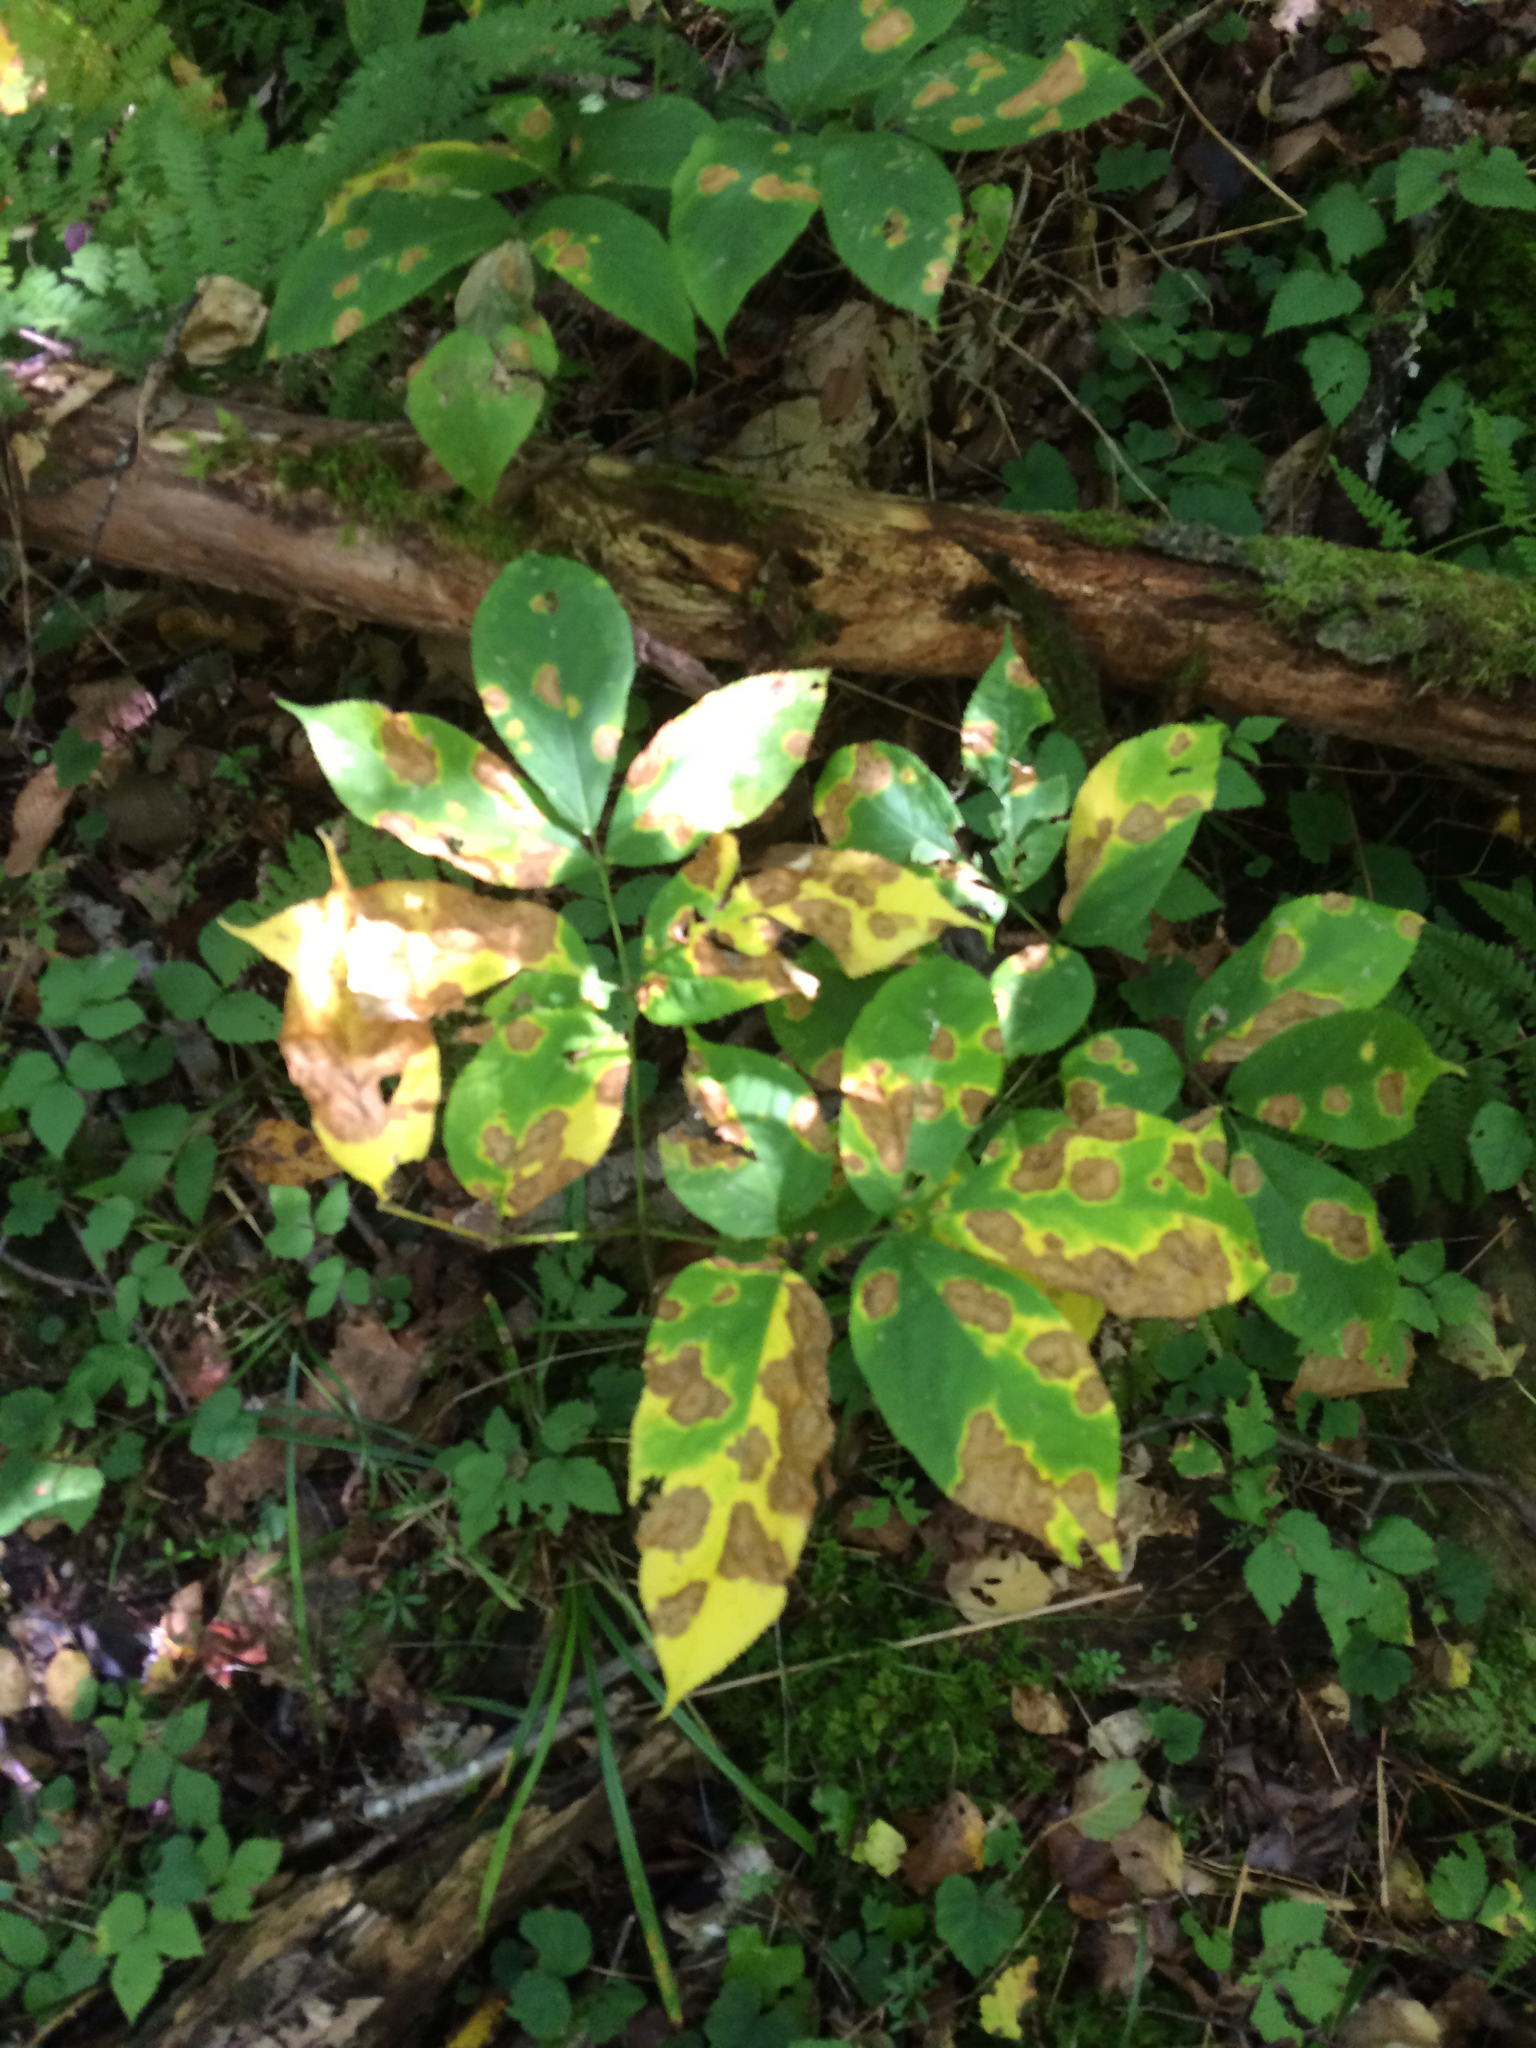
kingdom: Plantae
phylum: Tracheophyta
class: Magnoliopsida
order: Apiales
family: Araliaceae
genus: Aralia
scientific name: Aralia nudicaulis
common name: Wild sarsaparilla
